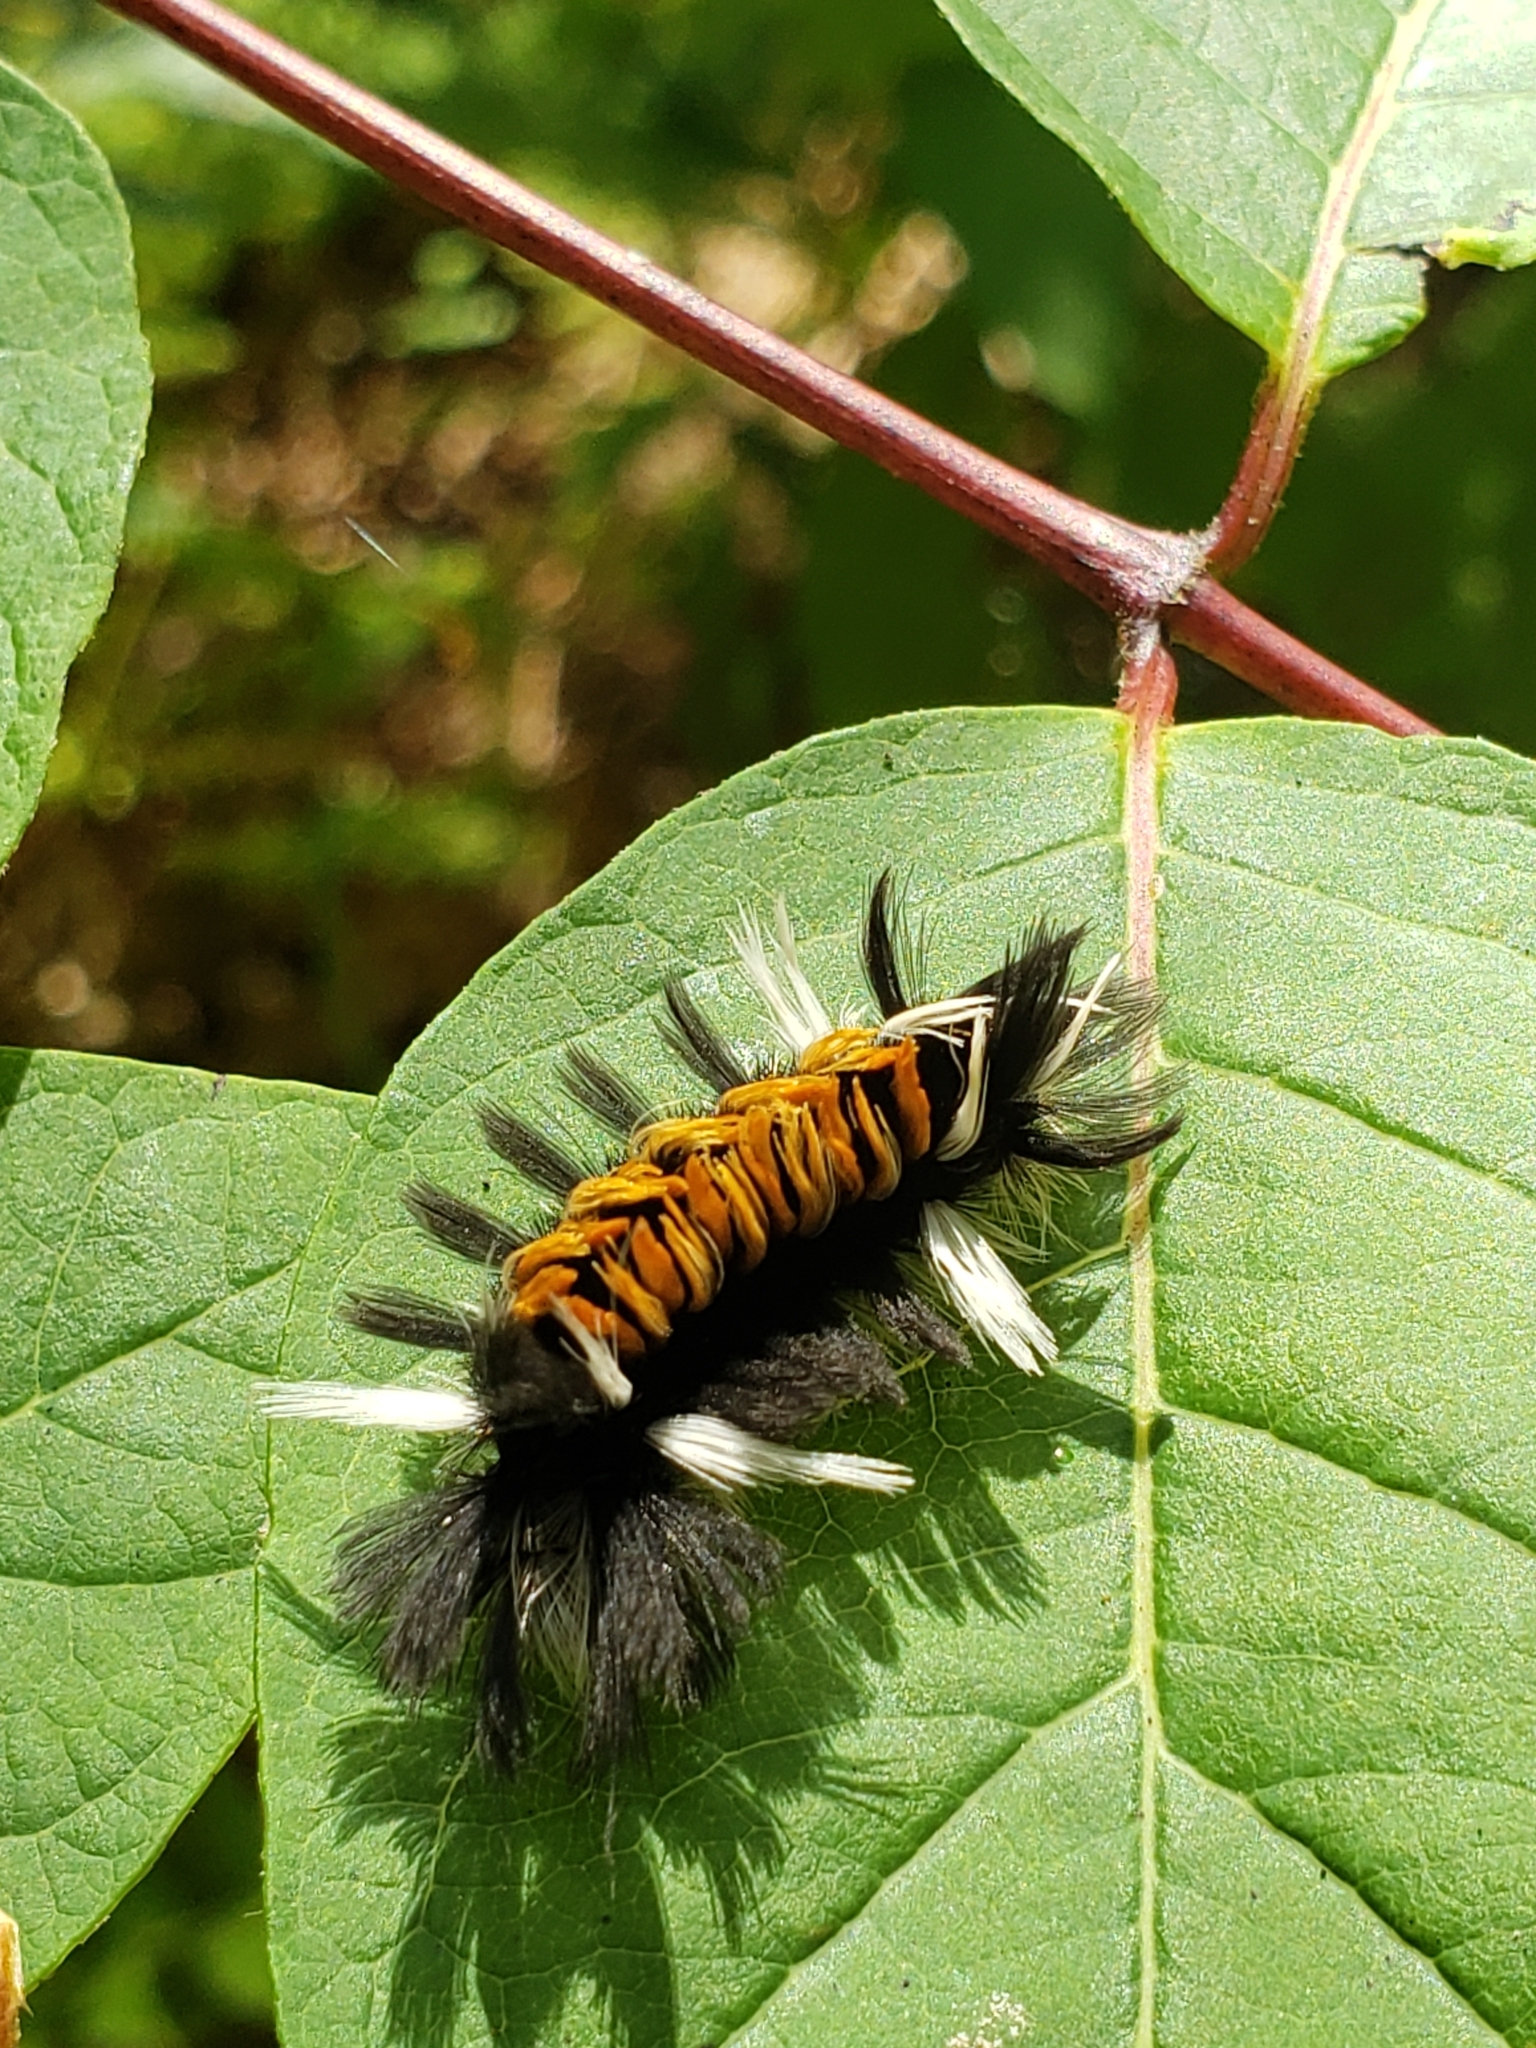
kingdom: Animalia
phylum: Arthropoda
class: Insecta
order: Lepidoptera
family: Erebidae
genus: Euchaetes
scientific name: Euchaetes egle
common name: Milkweed tussock moth
